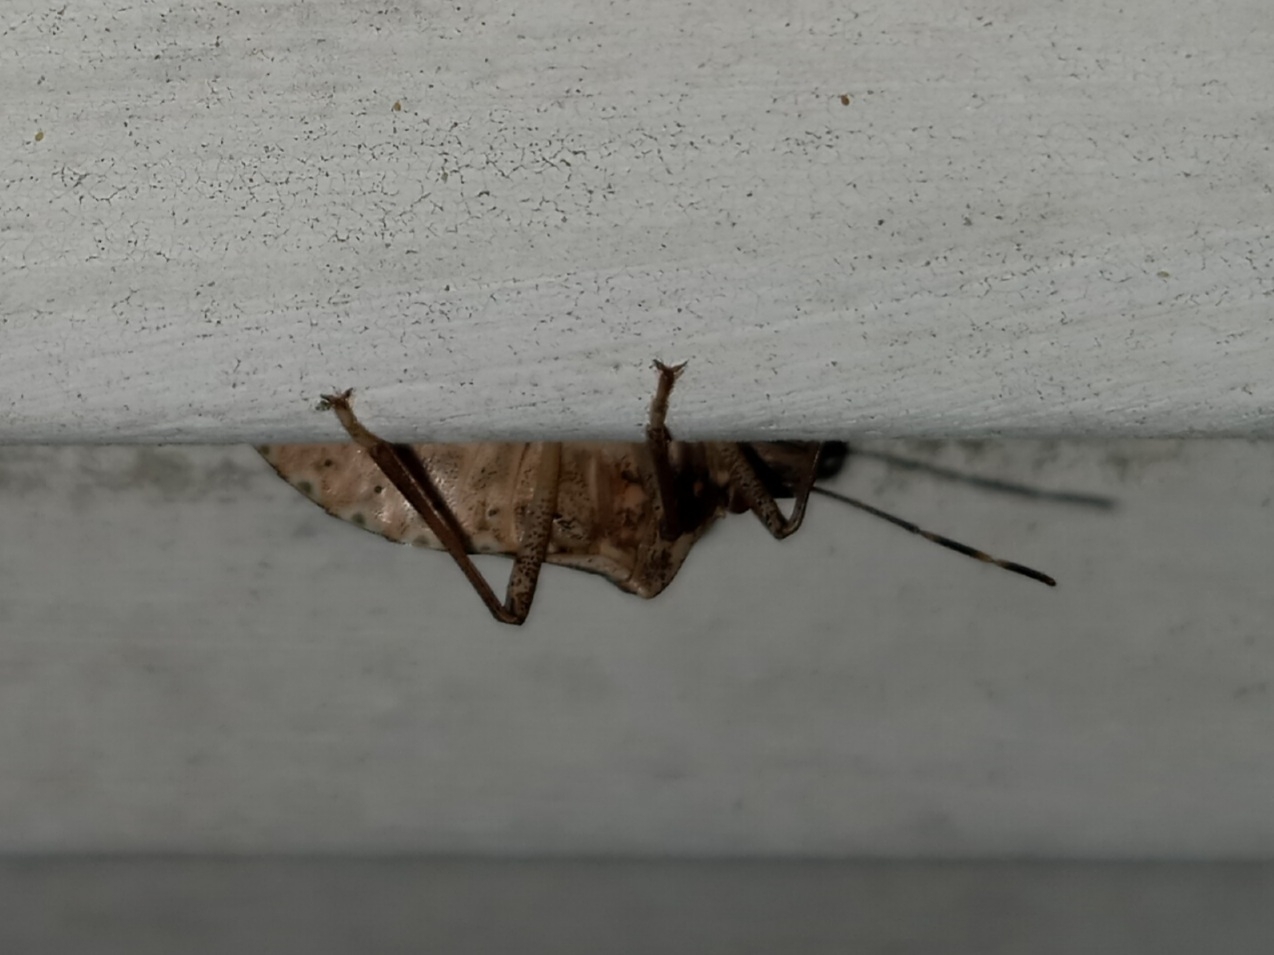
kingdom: Animalia
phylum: Arthropoda
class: Insecta
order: Hemiptera
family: Pentatomidae
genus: Halyomorpha
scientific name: Halyomorpha halys
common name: Brown marmorated stink bug
